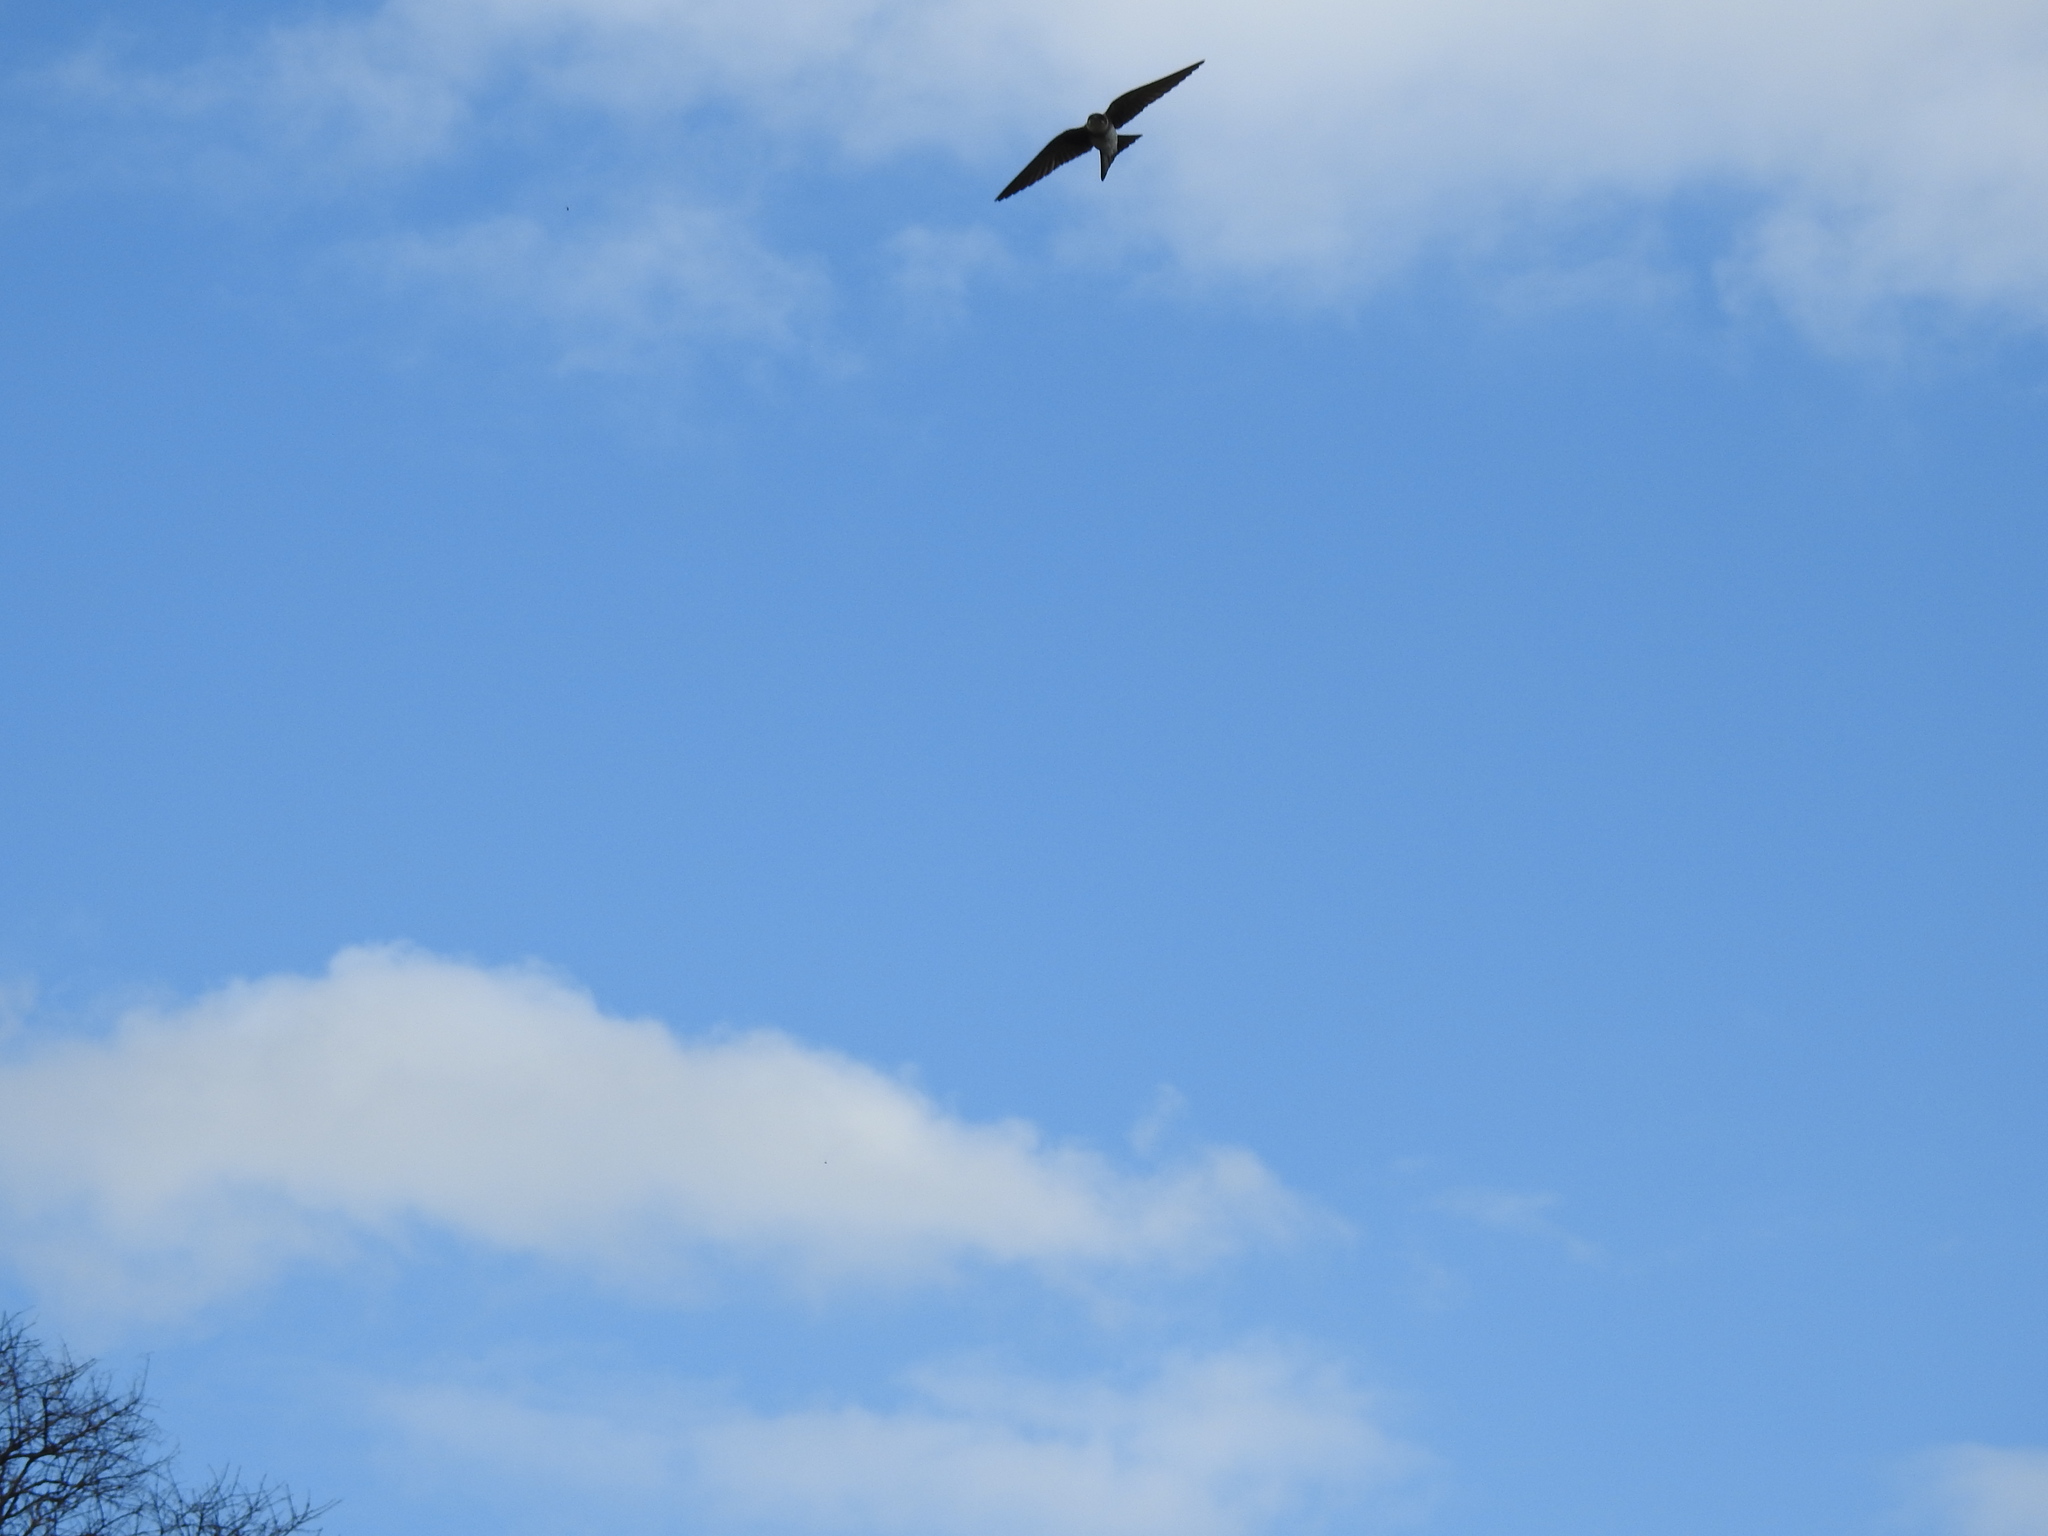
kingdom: Animalia
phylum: Chordata
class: Aves
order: Passeriformes
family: Hirundinidae
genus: Progne
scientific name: Progne tapera
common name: Brown-chested martin
